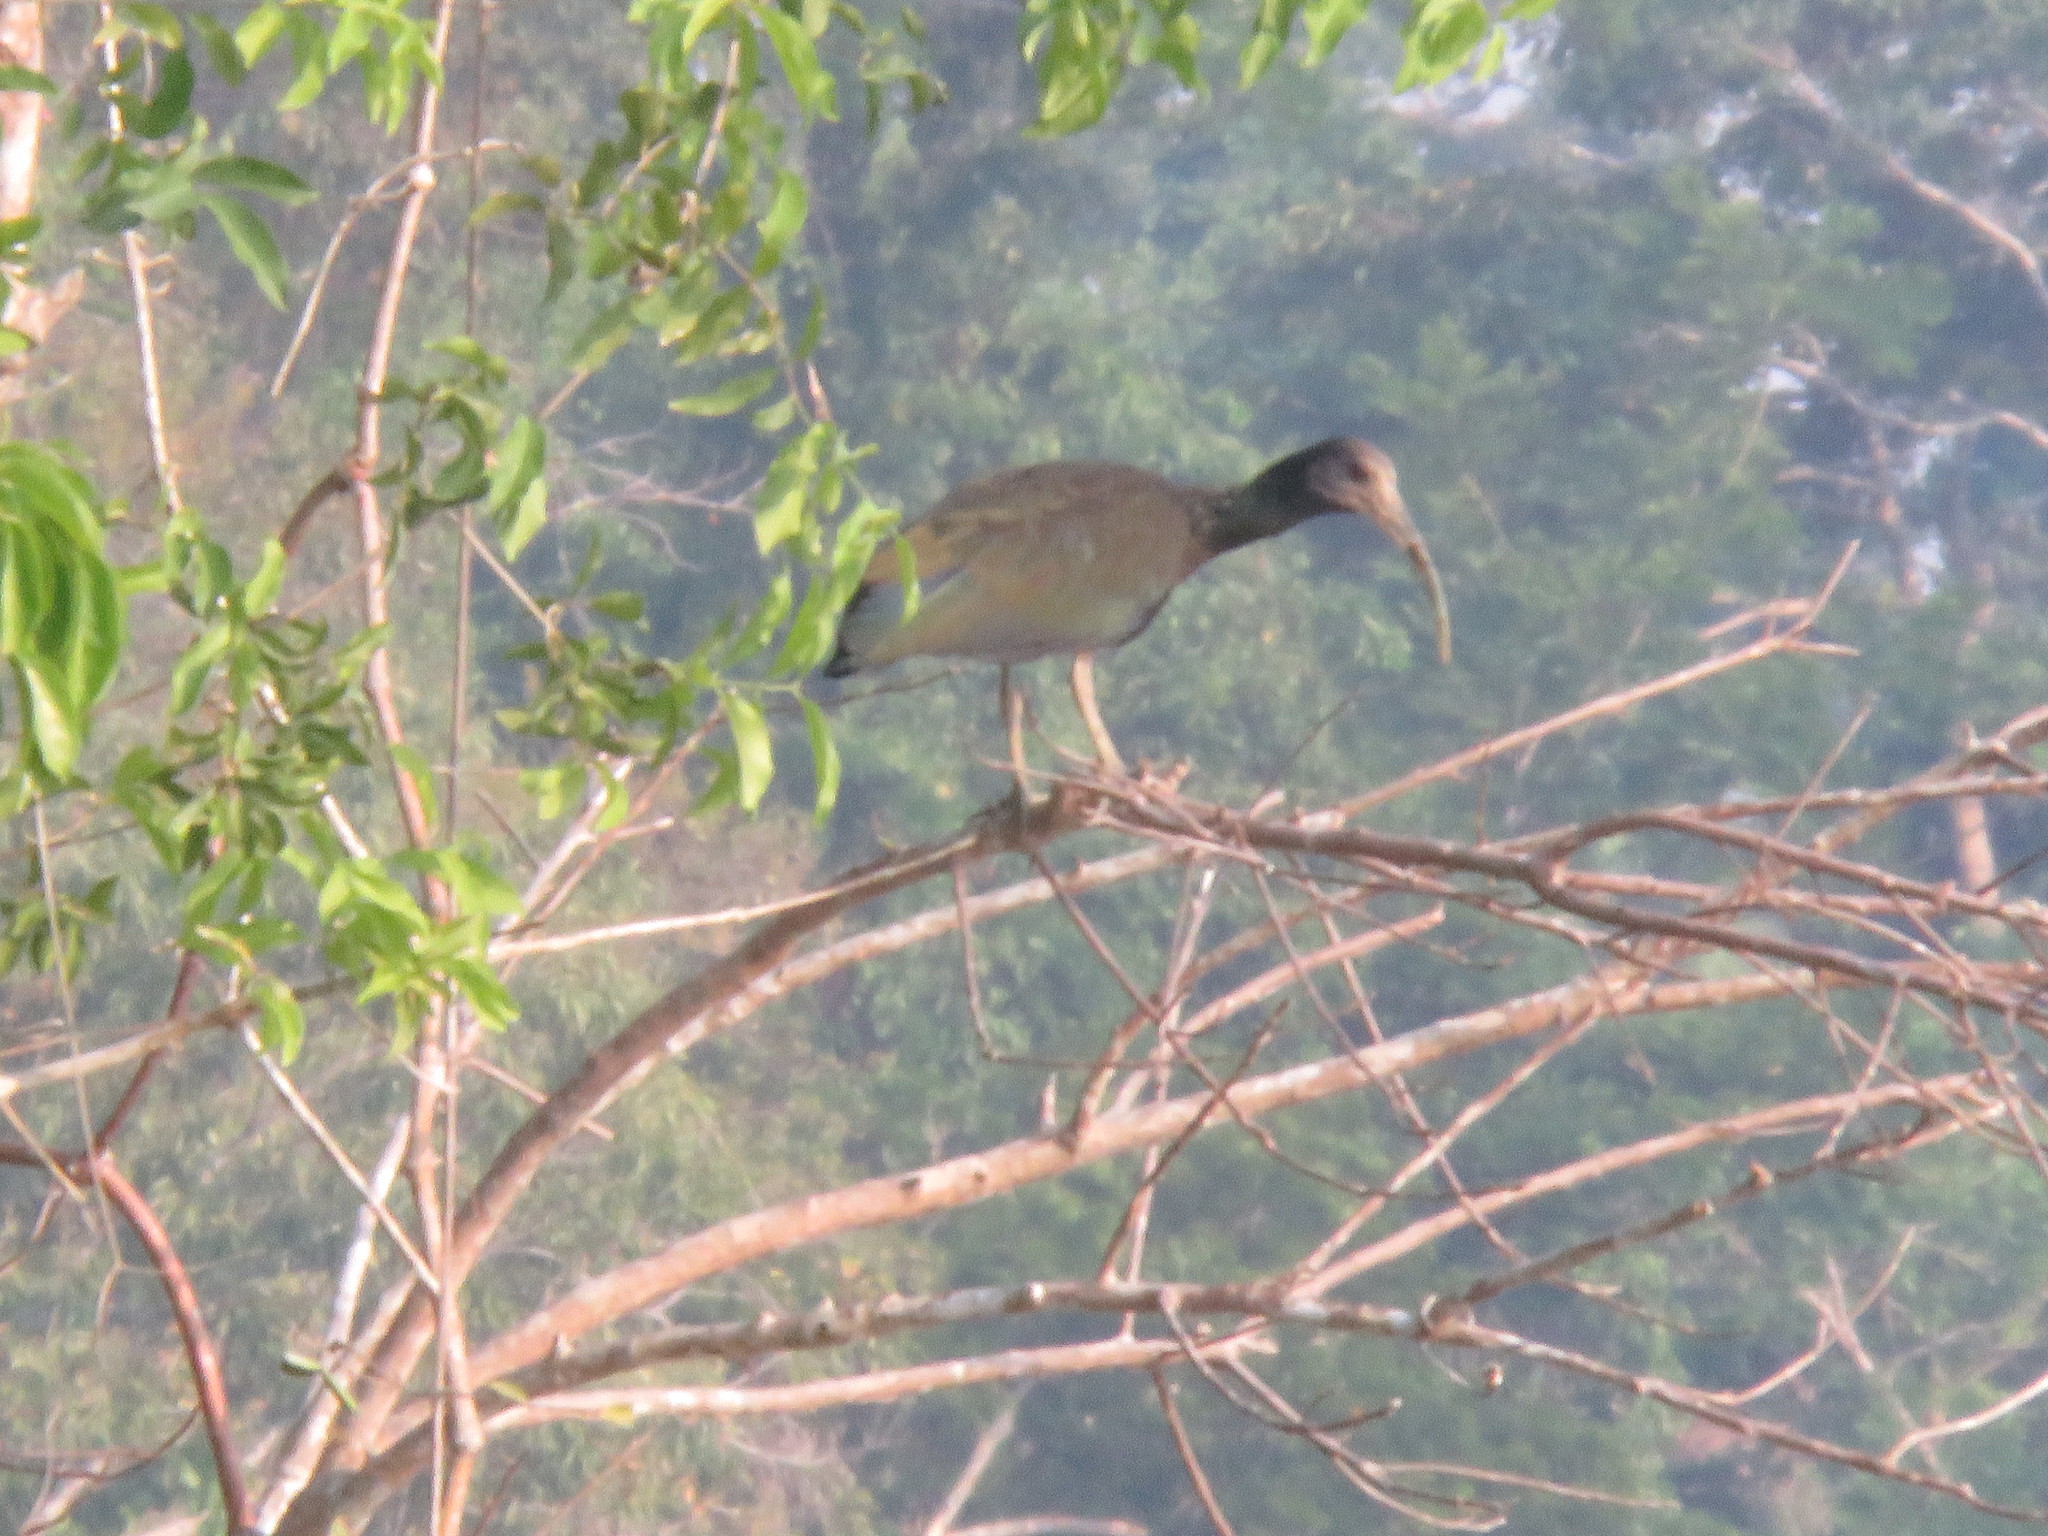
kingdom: Animalia
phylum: Chordata
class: Aves
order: Pelecaniformes
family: Threskiornithidae
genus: Mesembrinibis
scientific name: Mesembrinibis cayennensis
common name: Green ibis
